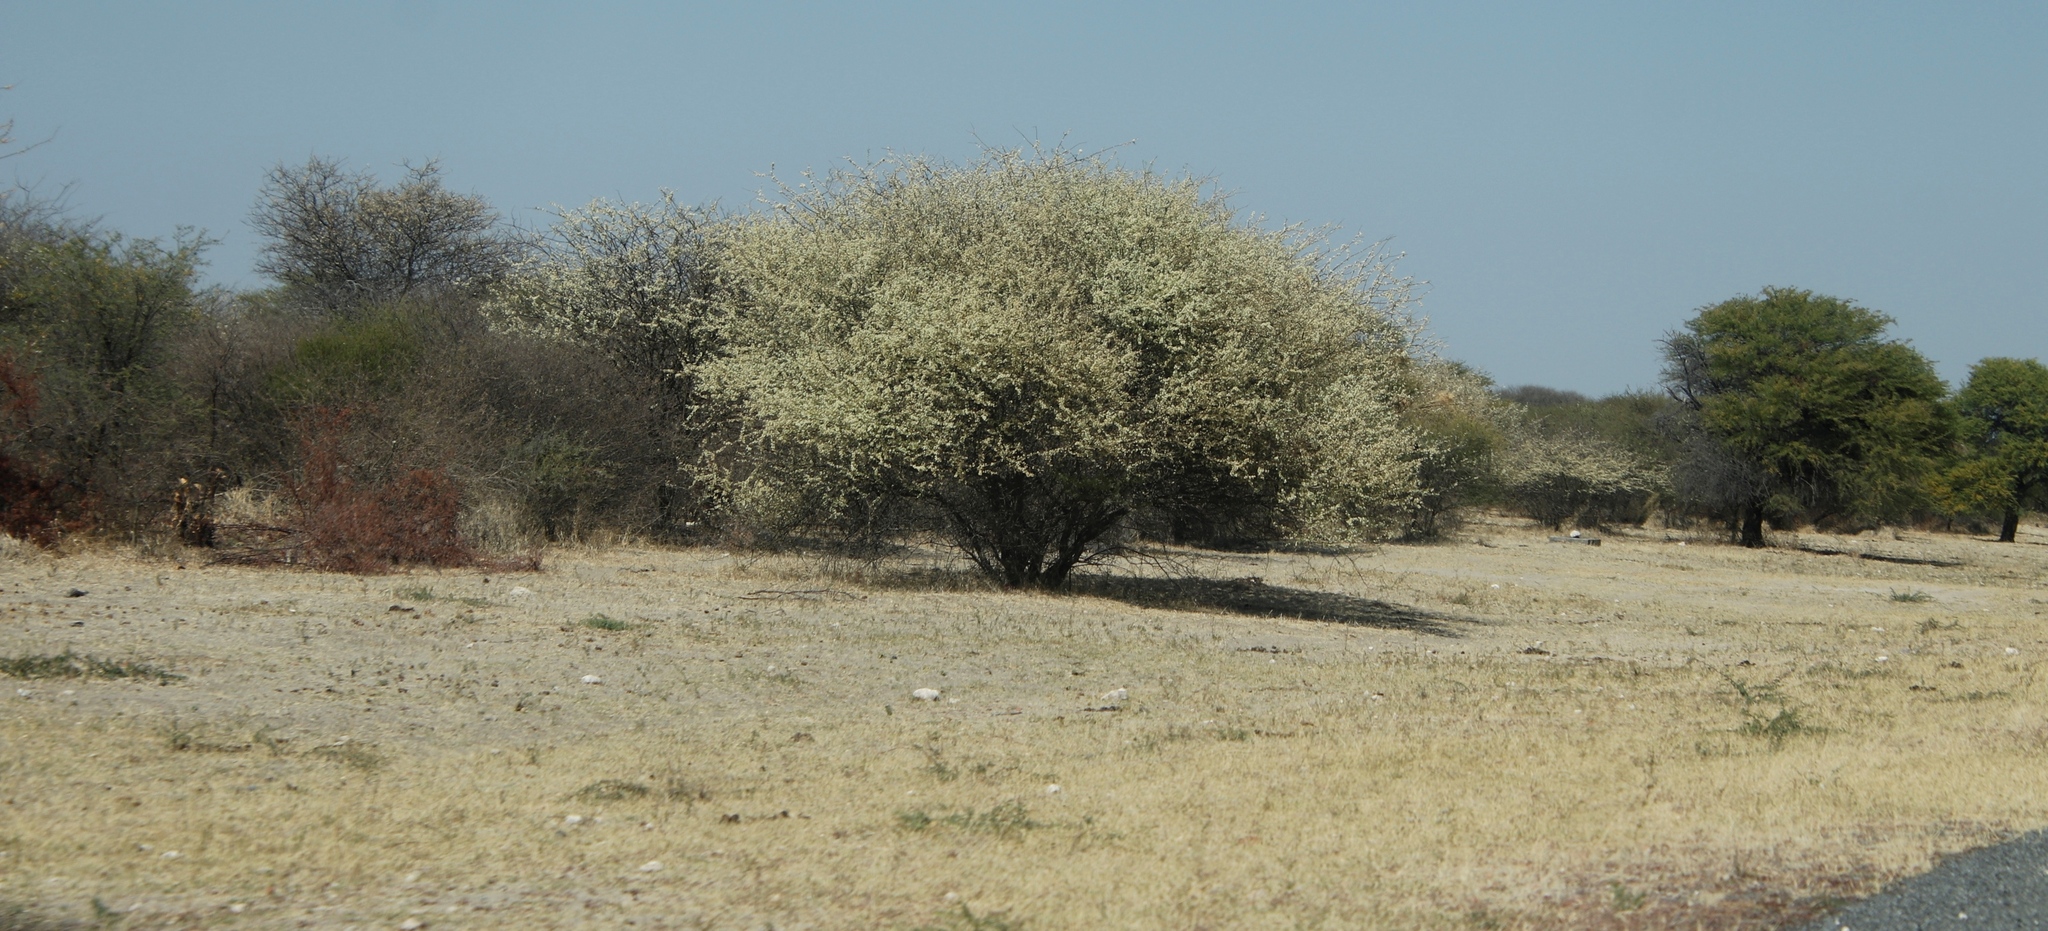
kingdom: Plantae
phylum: Tracheophyta
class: Magnoliopsida
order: Fabales
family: Fabaceae
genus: Senegalia
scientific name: Senegalia mellifera
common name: Hookthorn
